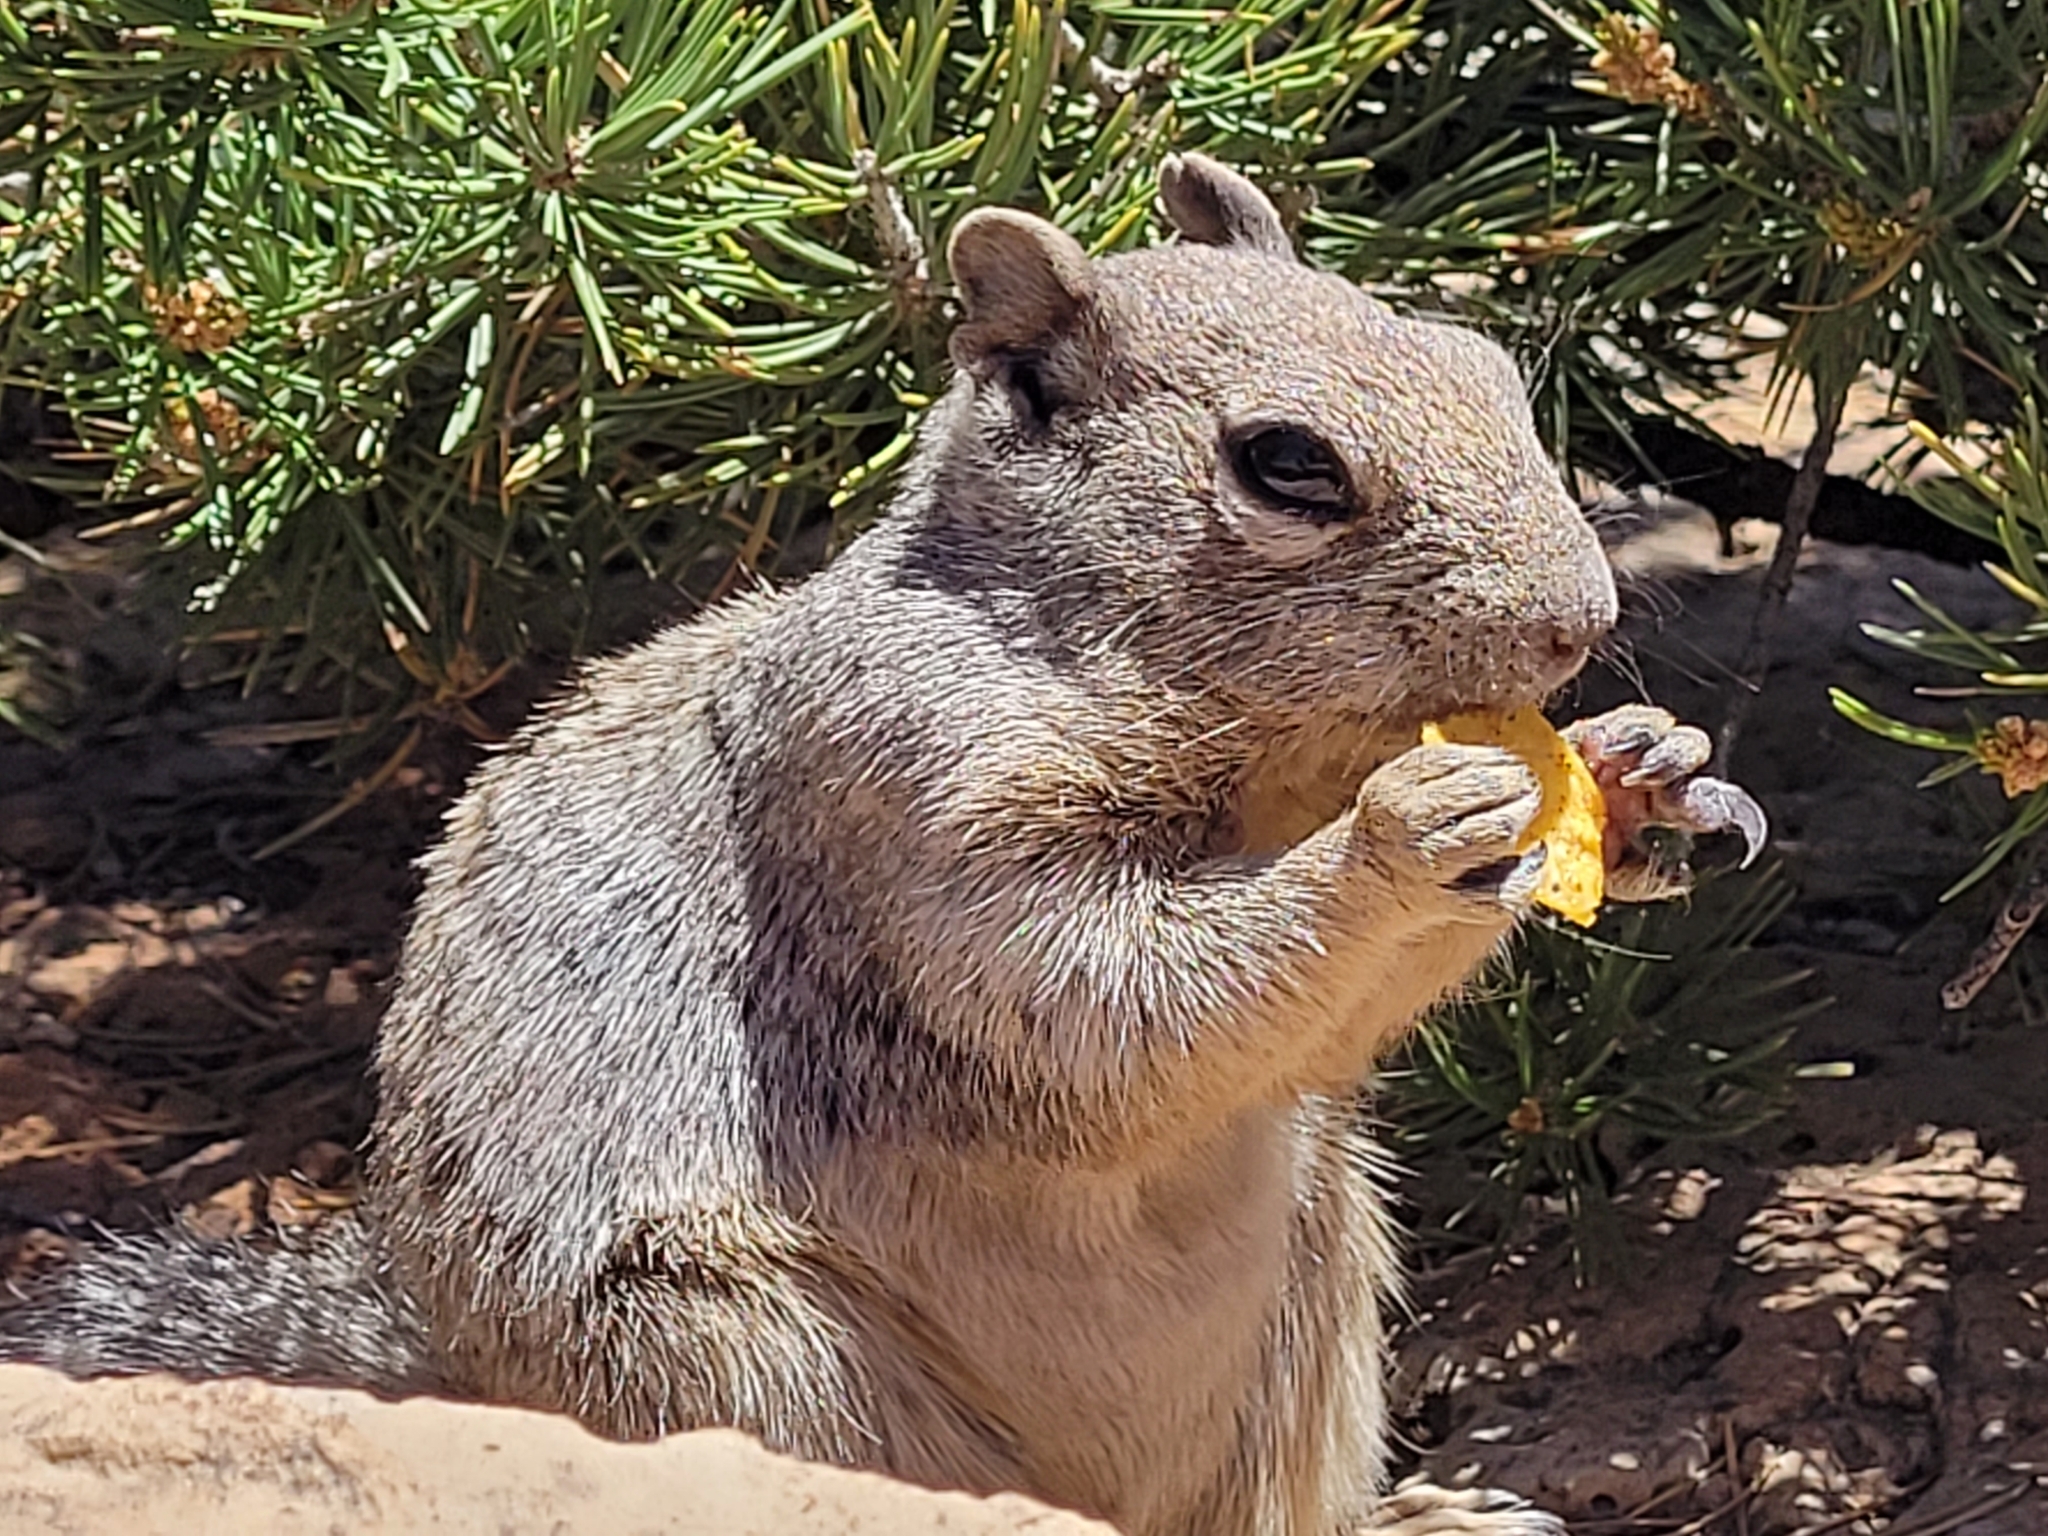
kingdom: Animalia
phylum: Chordata
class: Mammalia
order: Rodentia
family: Sciuridae
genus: Otospermophilus
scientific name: Otospermophilus variegatus
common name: Rock squirrel
